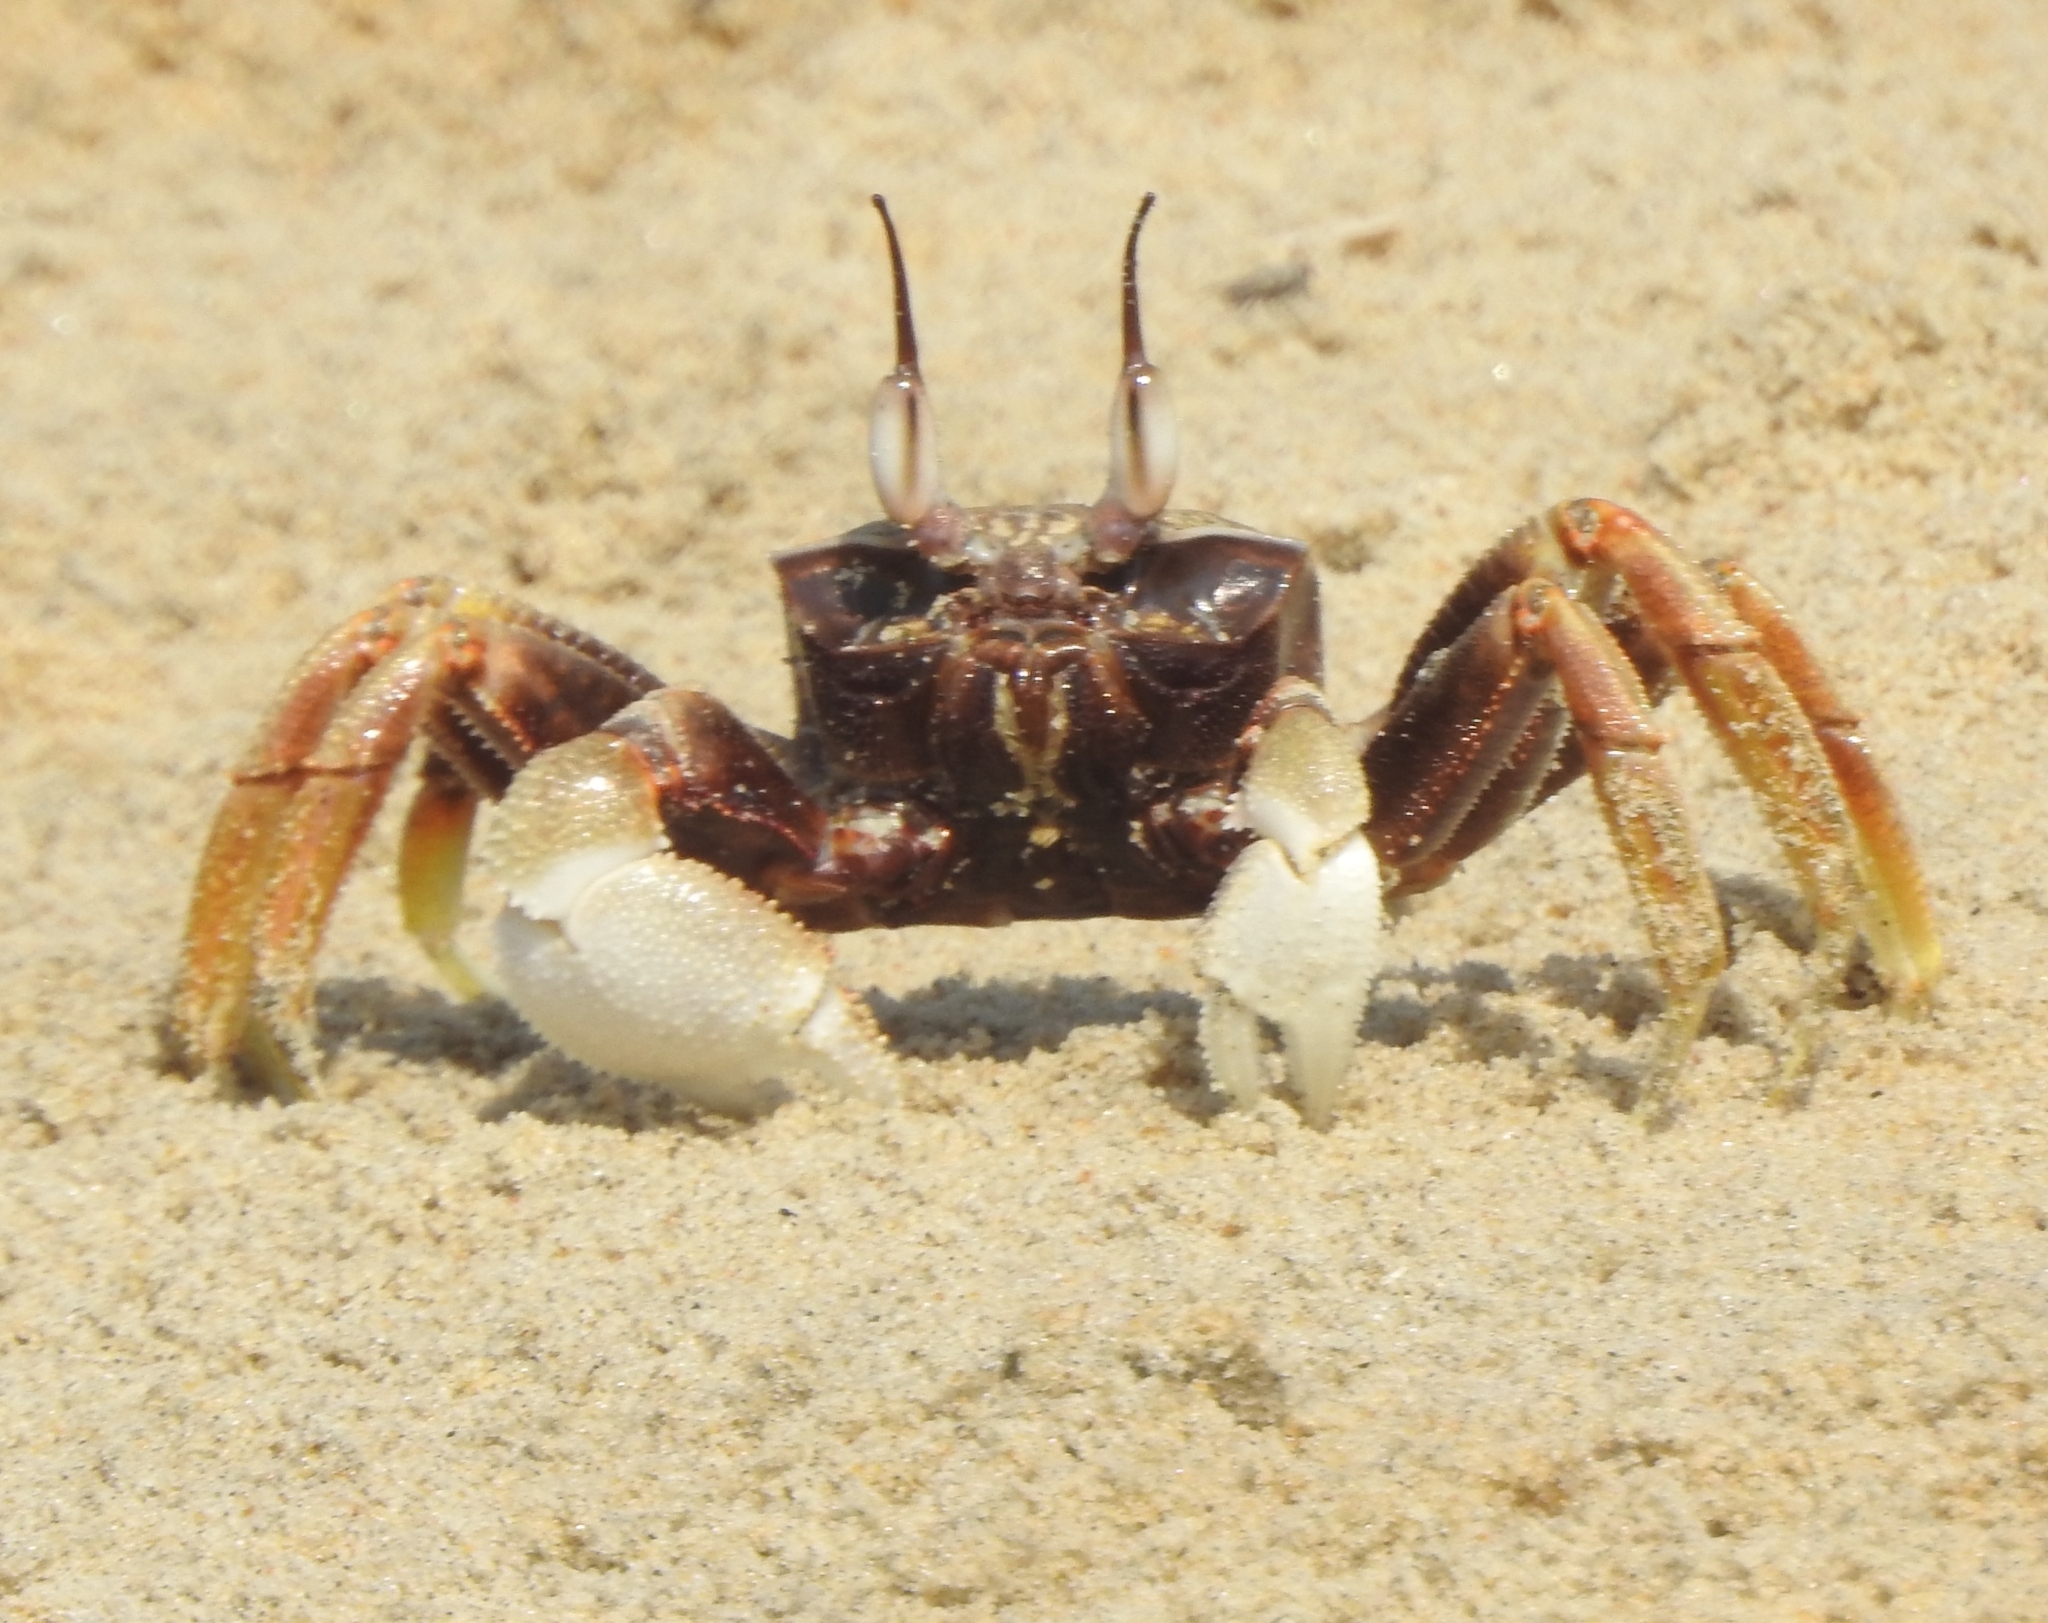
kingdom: Animalia
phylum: Arthropoda
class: Malacostraca
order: Decapoda
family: Ocypodidae
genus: Ocypode
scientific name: Ocypode ceratophthalmus
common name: Indo-pacific ghost crab
